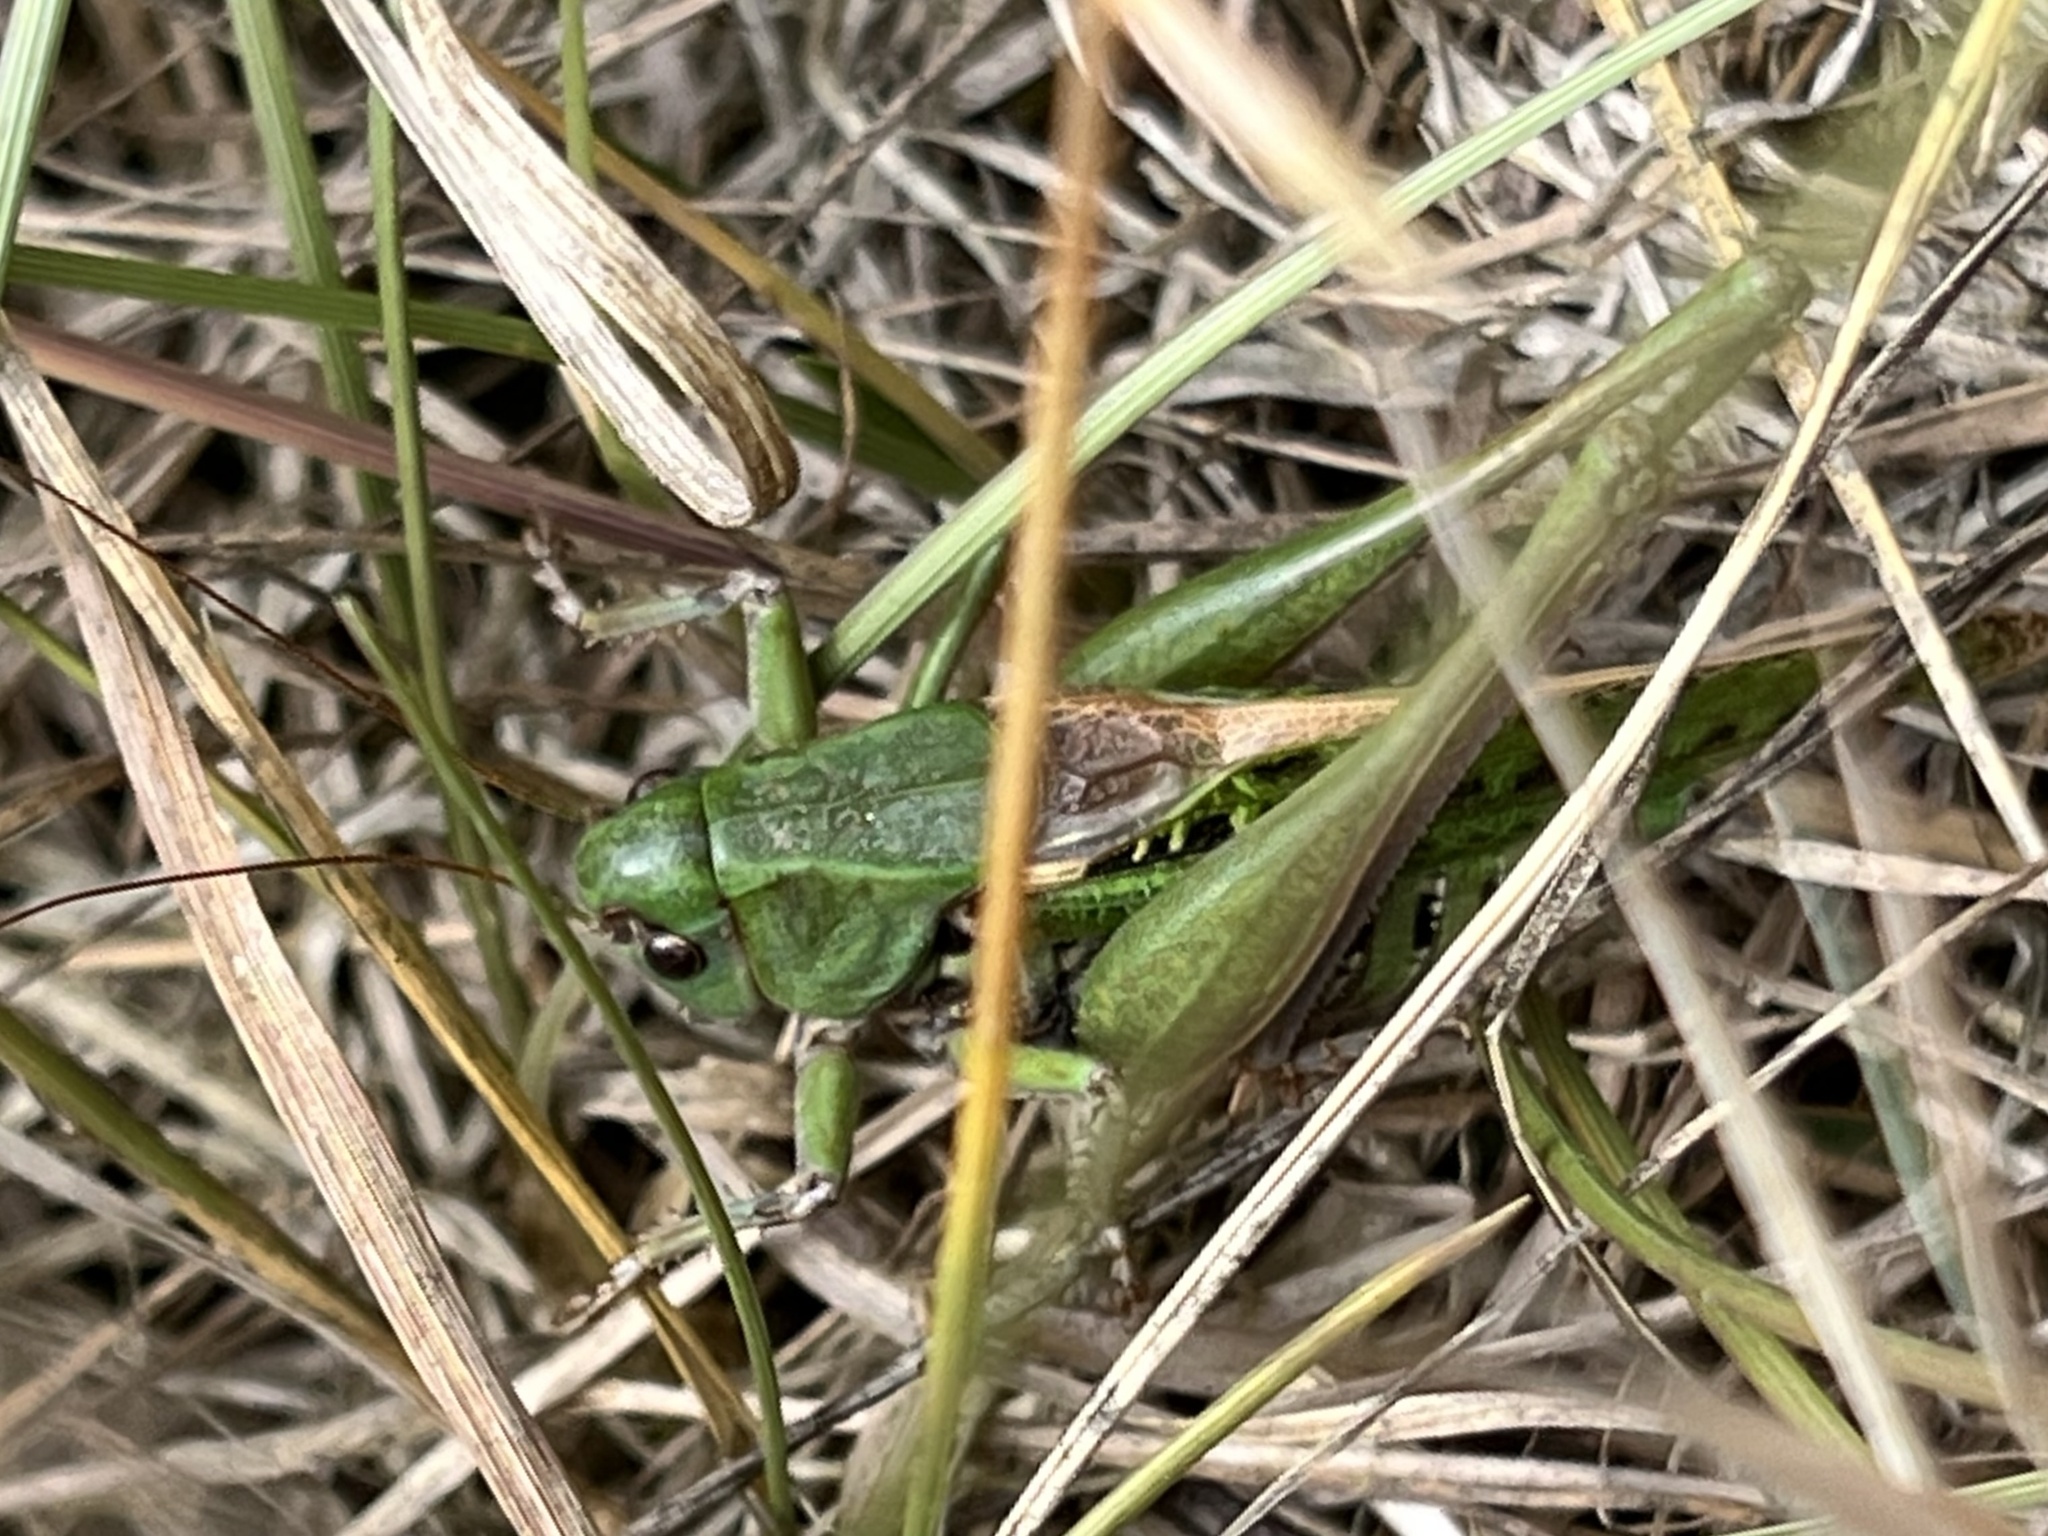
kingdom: Animalia
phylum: Arthropoda
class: Insecta
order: Orthoptera
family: Tettigoniidae
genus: Decticus
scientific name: Decticus verrucivorus
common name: Wart-biter
